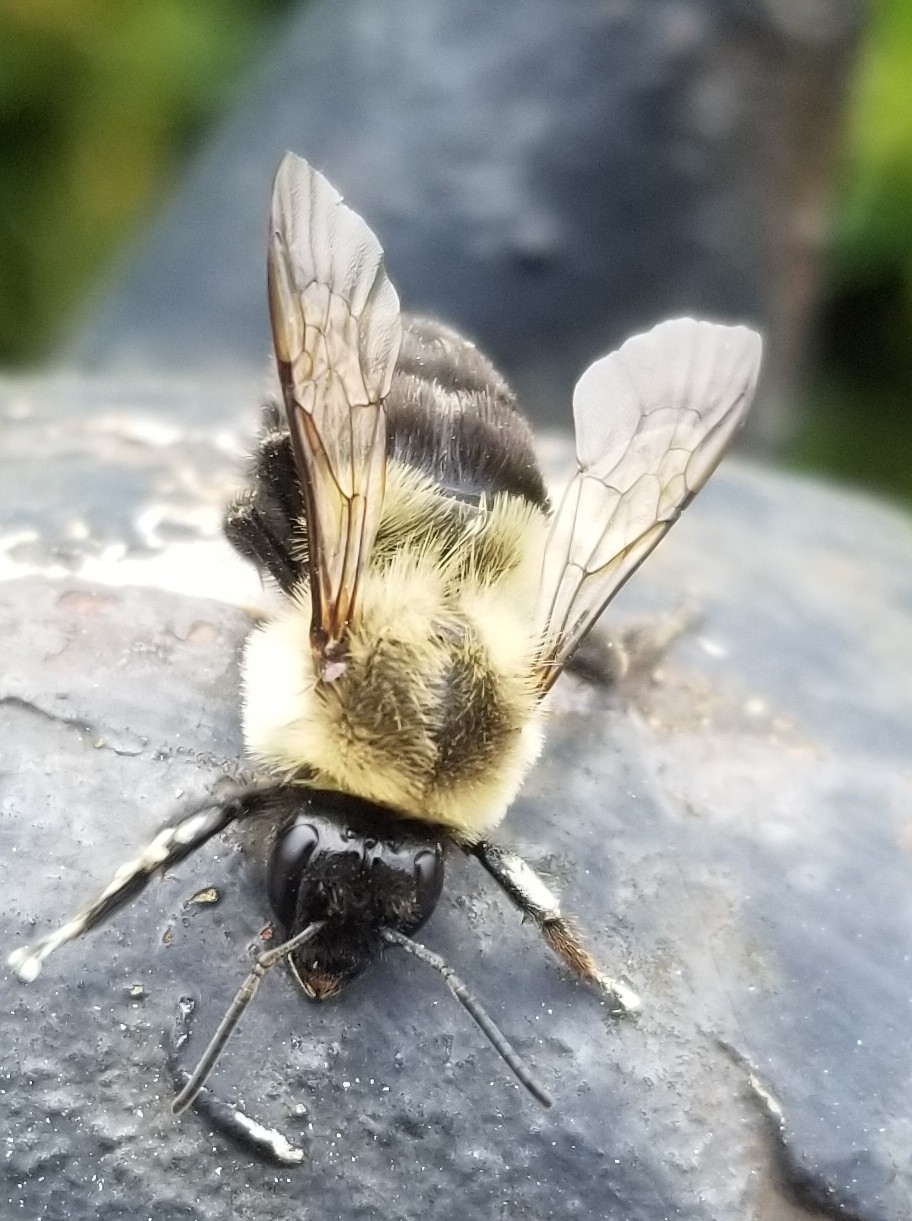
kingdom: Animalia
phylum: Arthropoda
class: Insecta
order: Hymenoptera
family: Apidae
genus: Bombus
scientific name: Bombus impatiens
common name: Common eastern bumble bee
